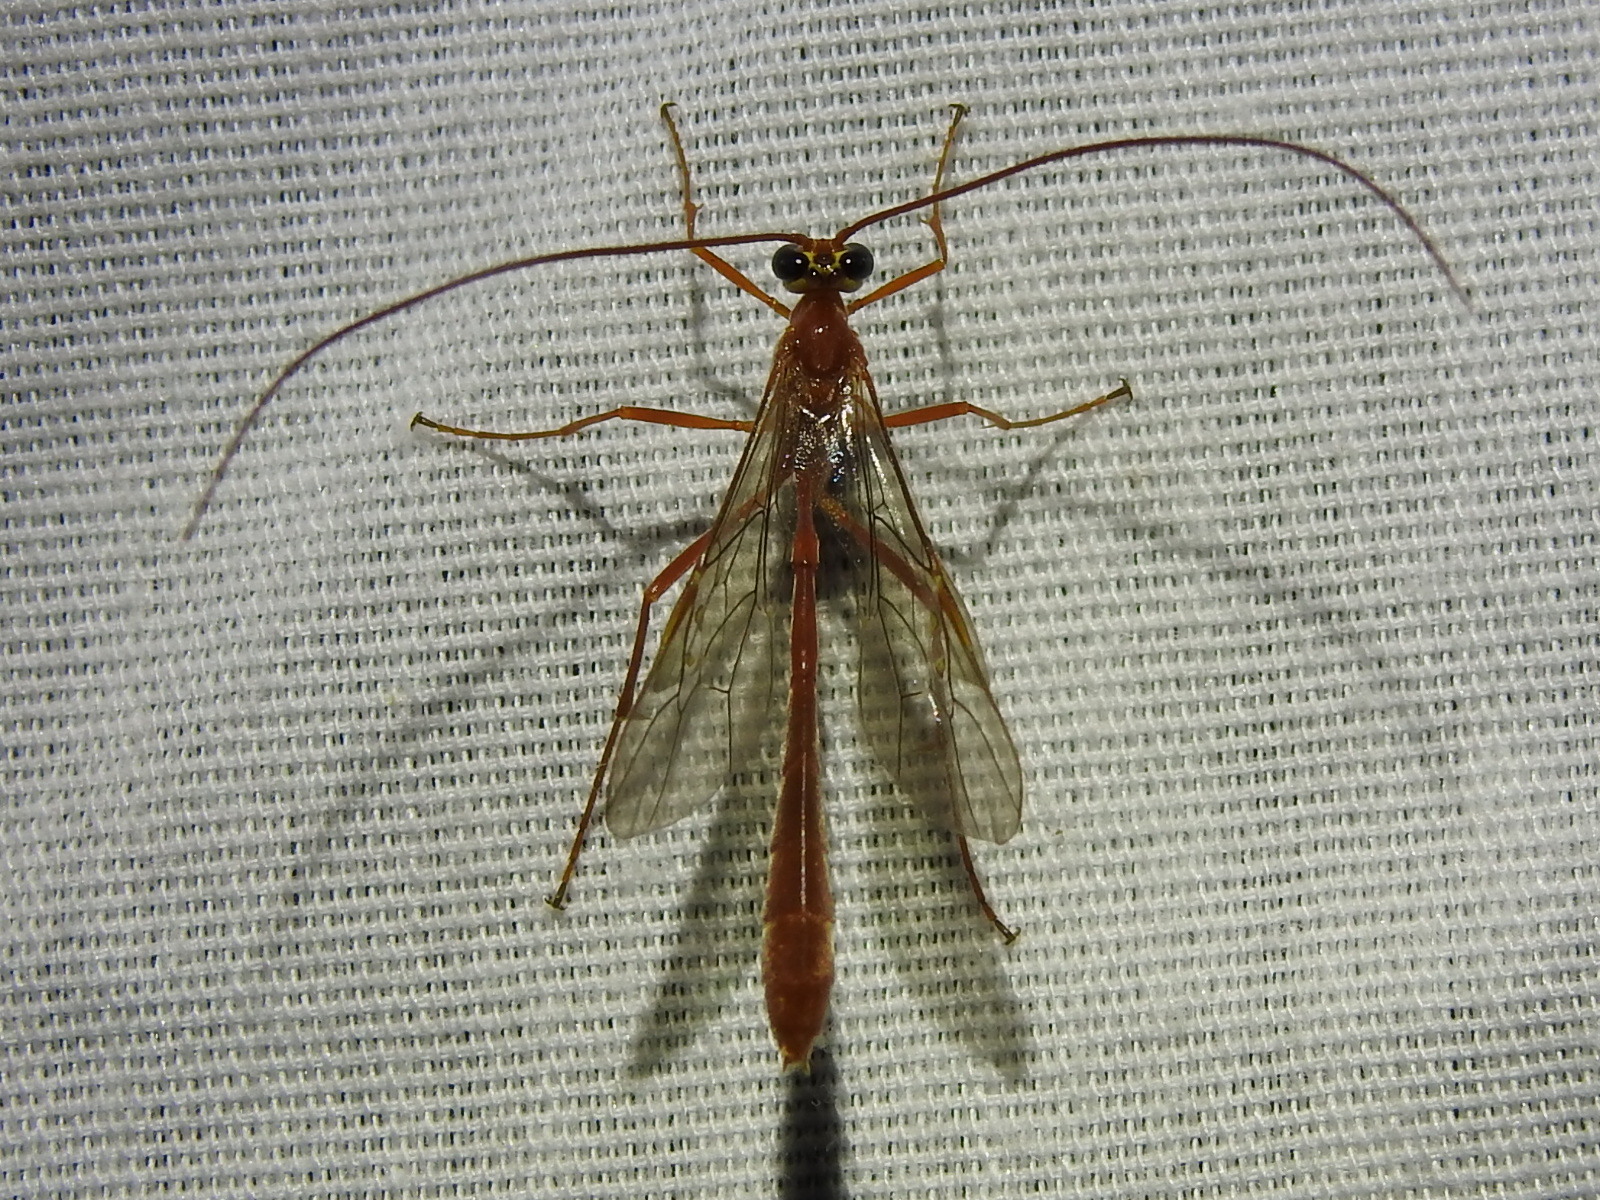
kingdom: Animalia
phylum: Arthropoda
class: Insecta
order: Hymenoptera
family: Ichneumonidae
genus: Enicospilus
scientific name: Enicospilus purgatus
